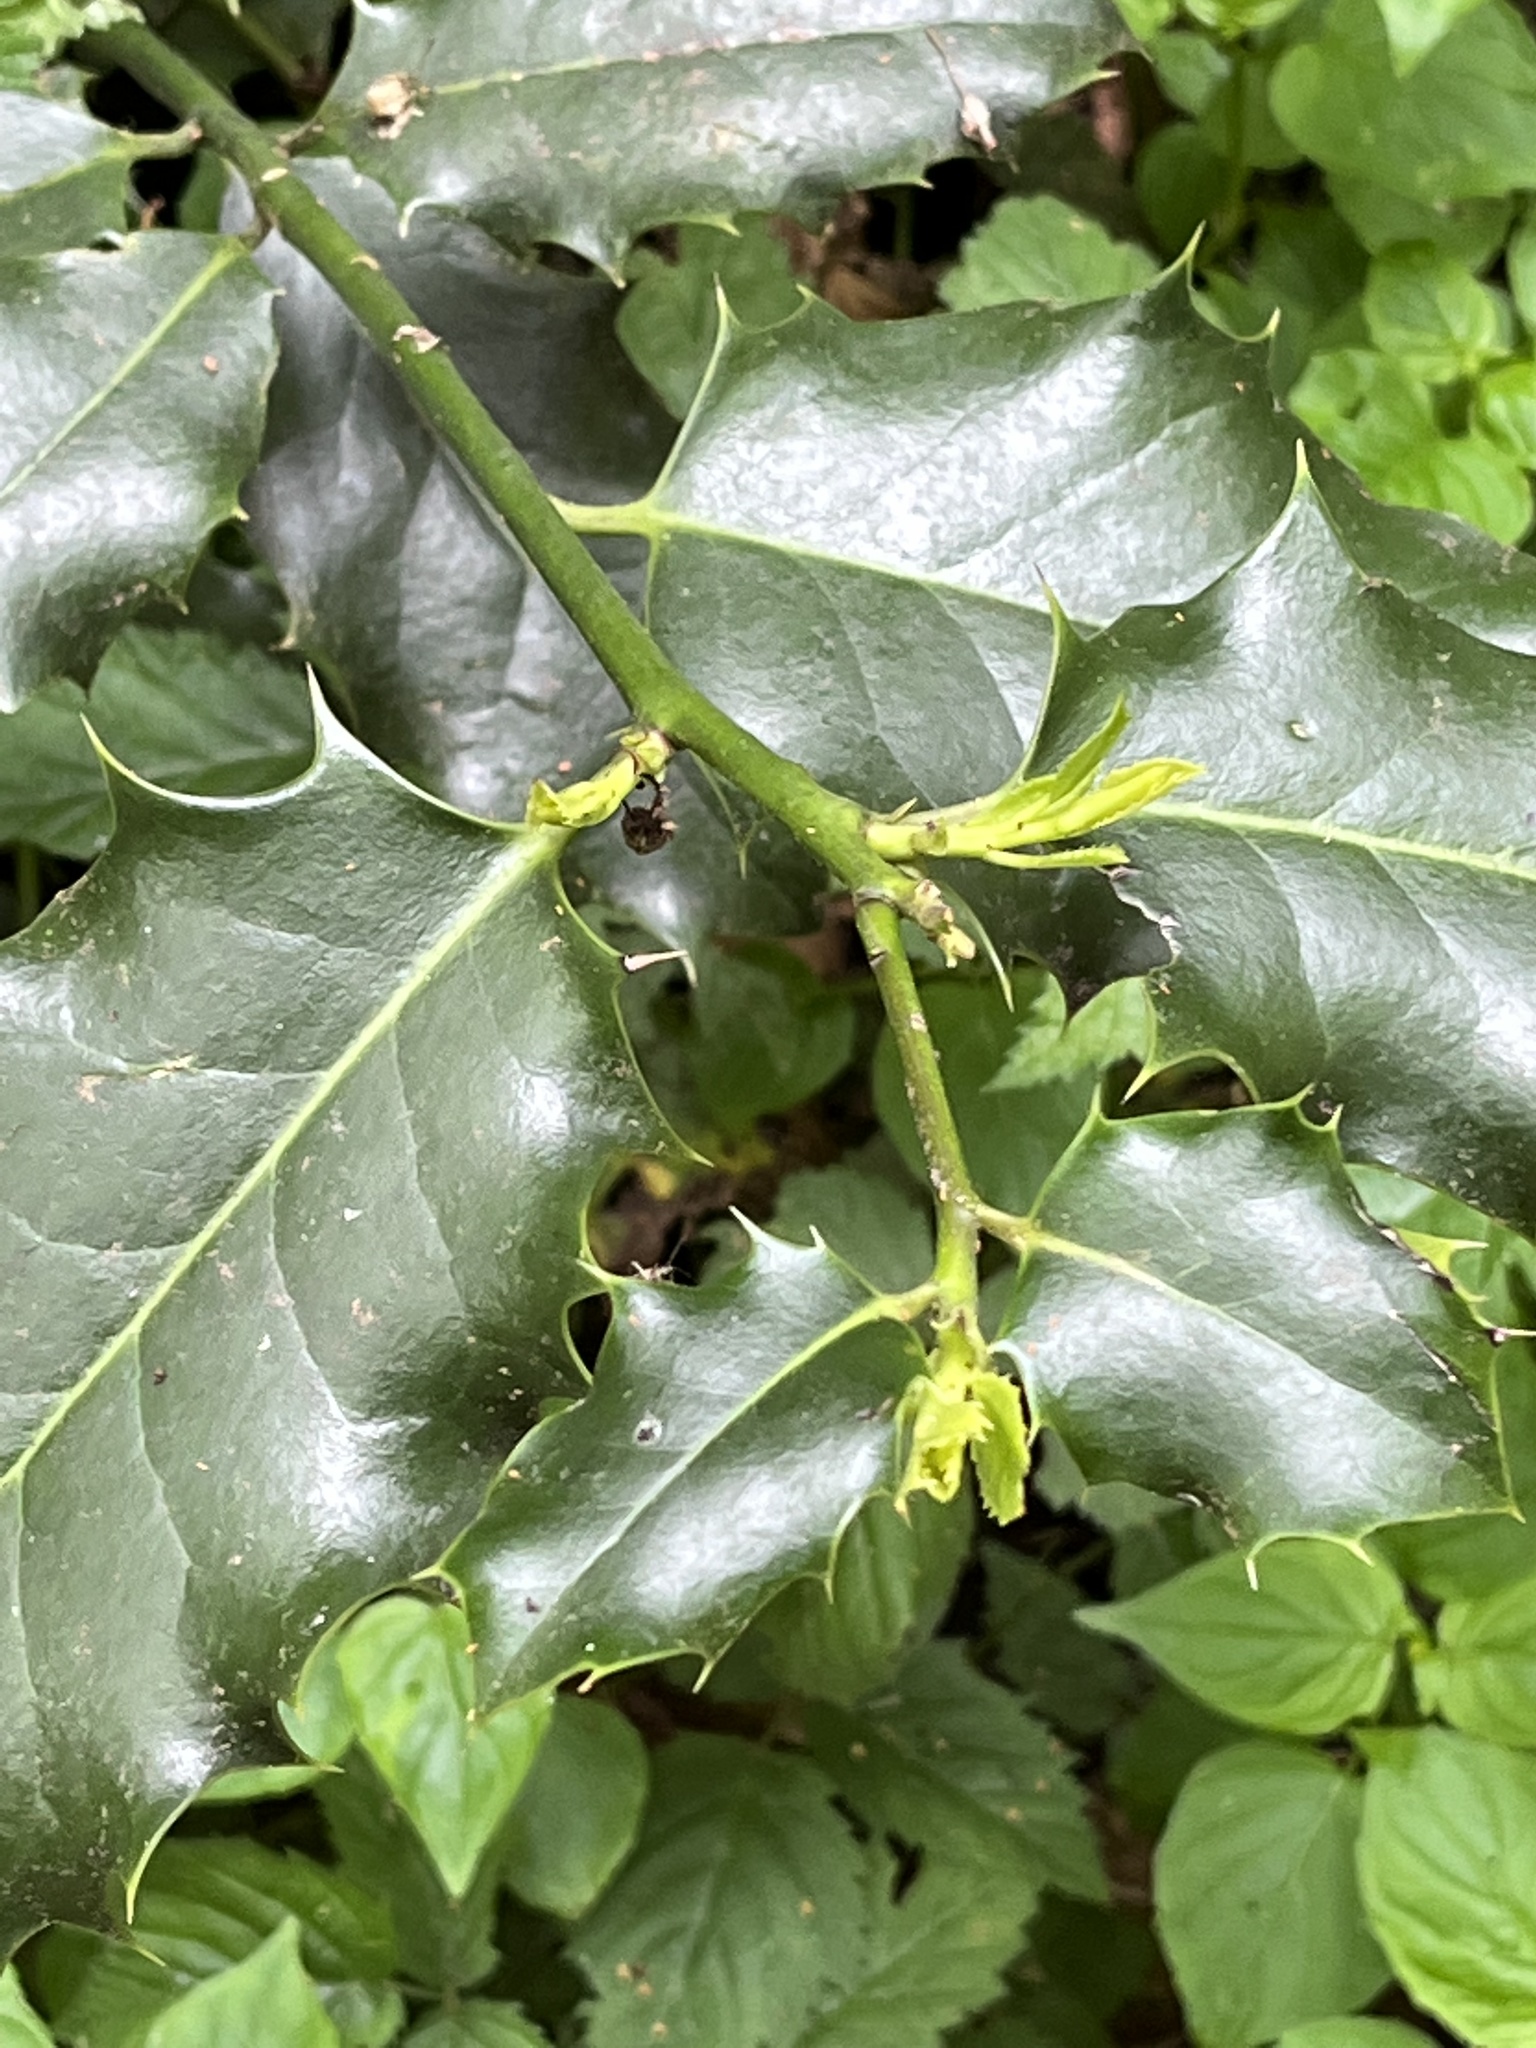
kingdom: Plantae
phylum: Tracheophyta
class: Magnoliopsida
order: Aquifoliales
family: Aquifoliaceae
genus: Ilex
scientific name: Ilex aquifolium
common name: English holly
